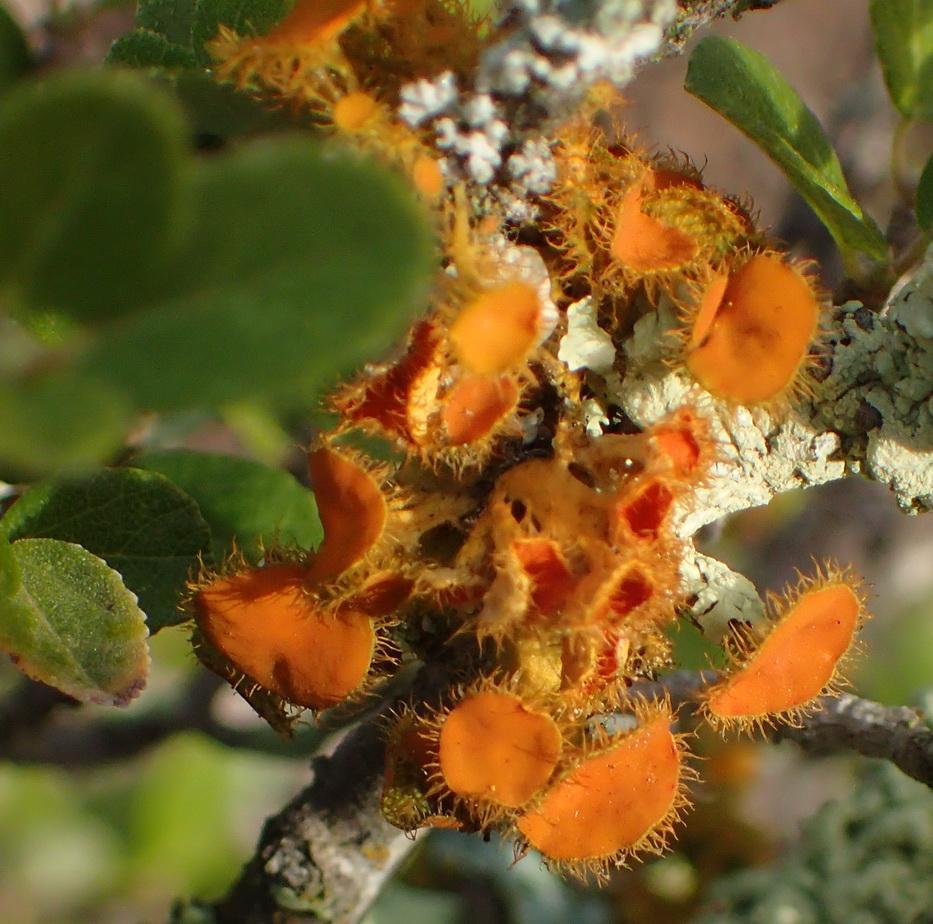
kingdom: Fungi
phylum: Ascomycota
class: Lecanoromycetes
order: Teloschistales
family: Teloschistaceae
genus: Niorma
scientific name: Niorma chrysophthalma
